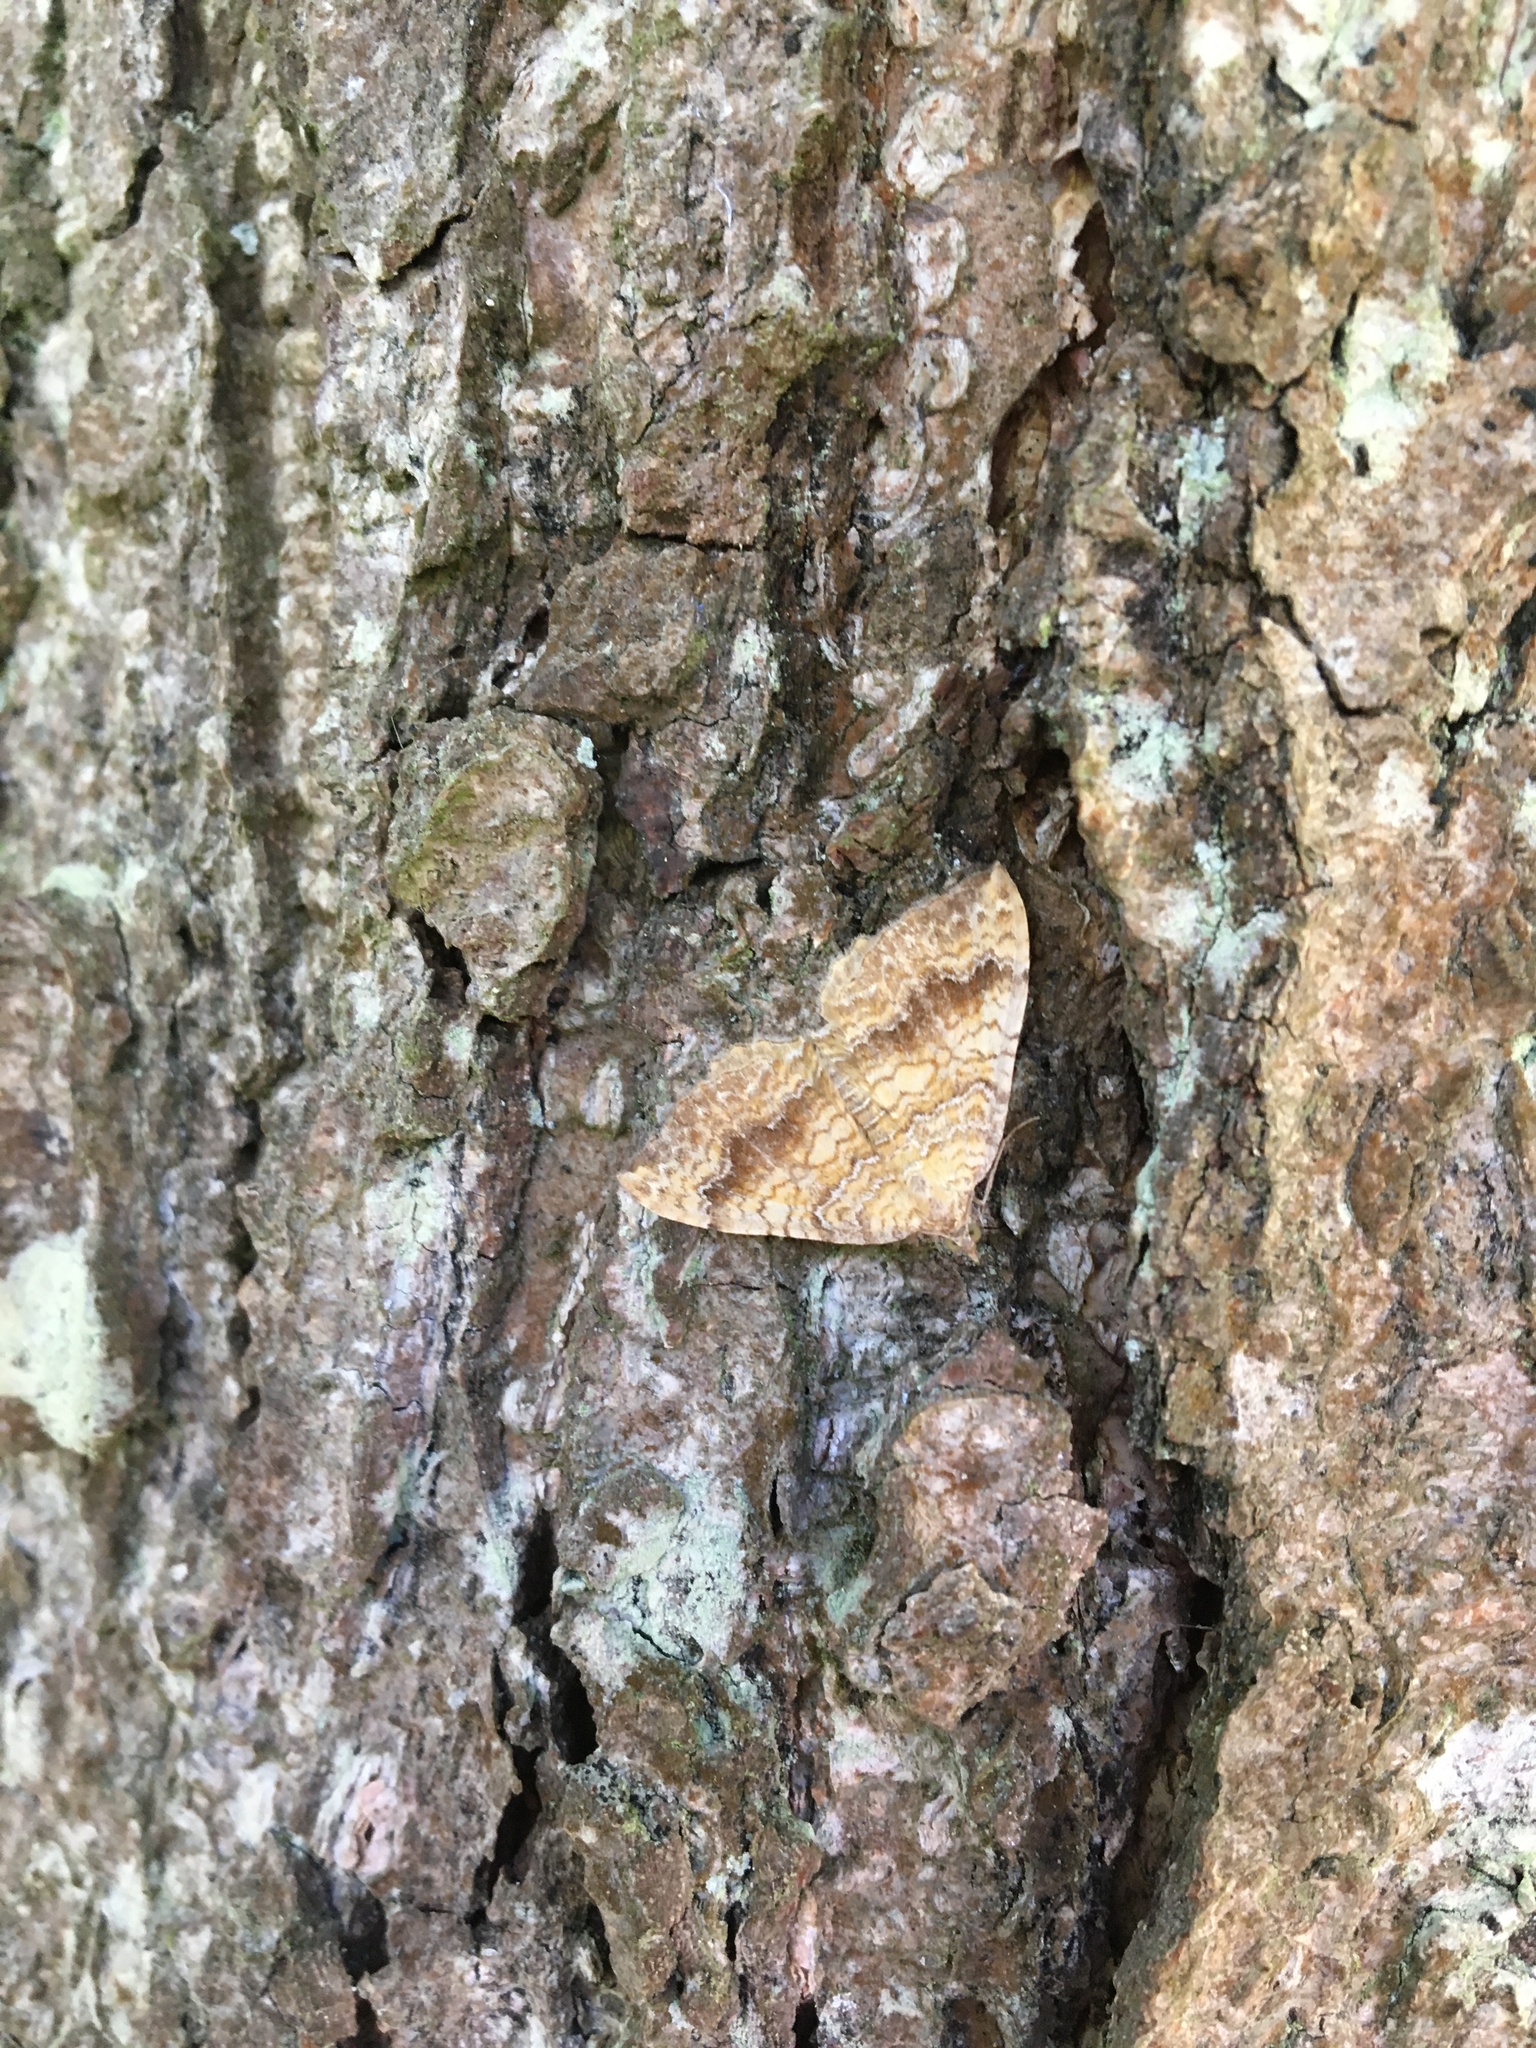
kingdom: Animalia
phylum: Arthropoda
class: Insecta
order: Lepidoptera
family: Geometridae
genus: Camptogramma
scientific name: Camptogramma bilineata
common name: Yellow shell
